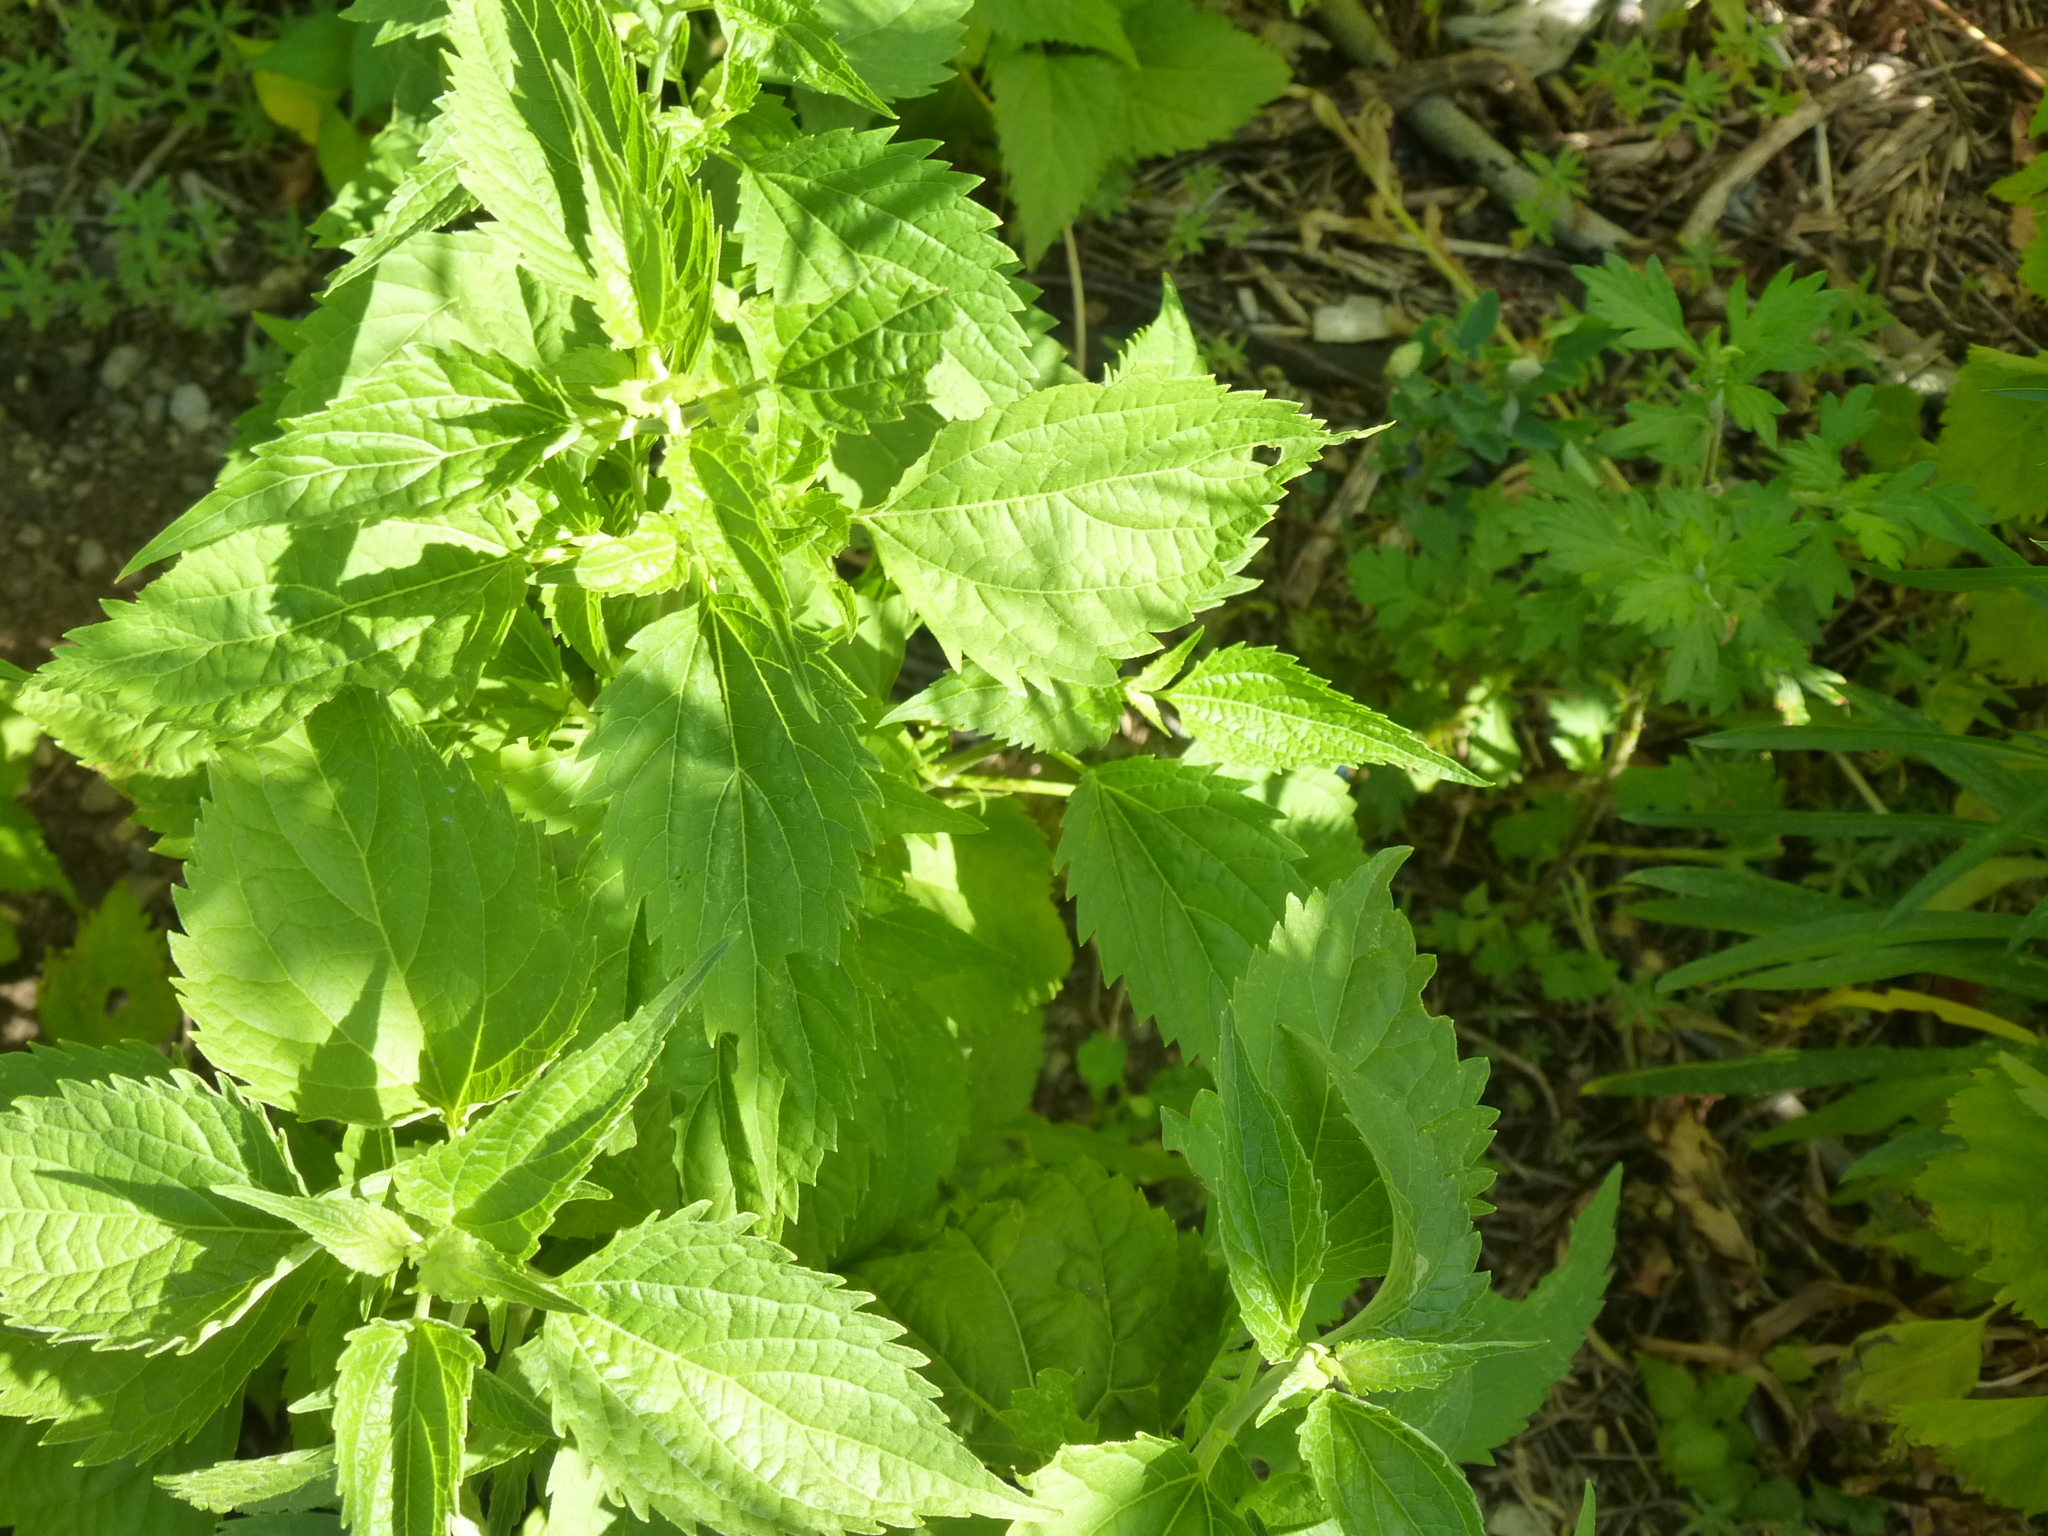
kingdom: Plantae
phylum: Tracheophyta
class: Magnoliopsida
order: Asterales
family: Asteraceae
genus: Ageratina
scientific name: Ageratina altissima
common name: White snakeroot
